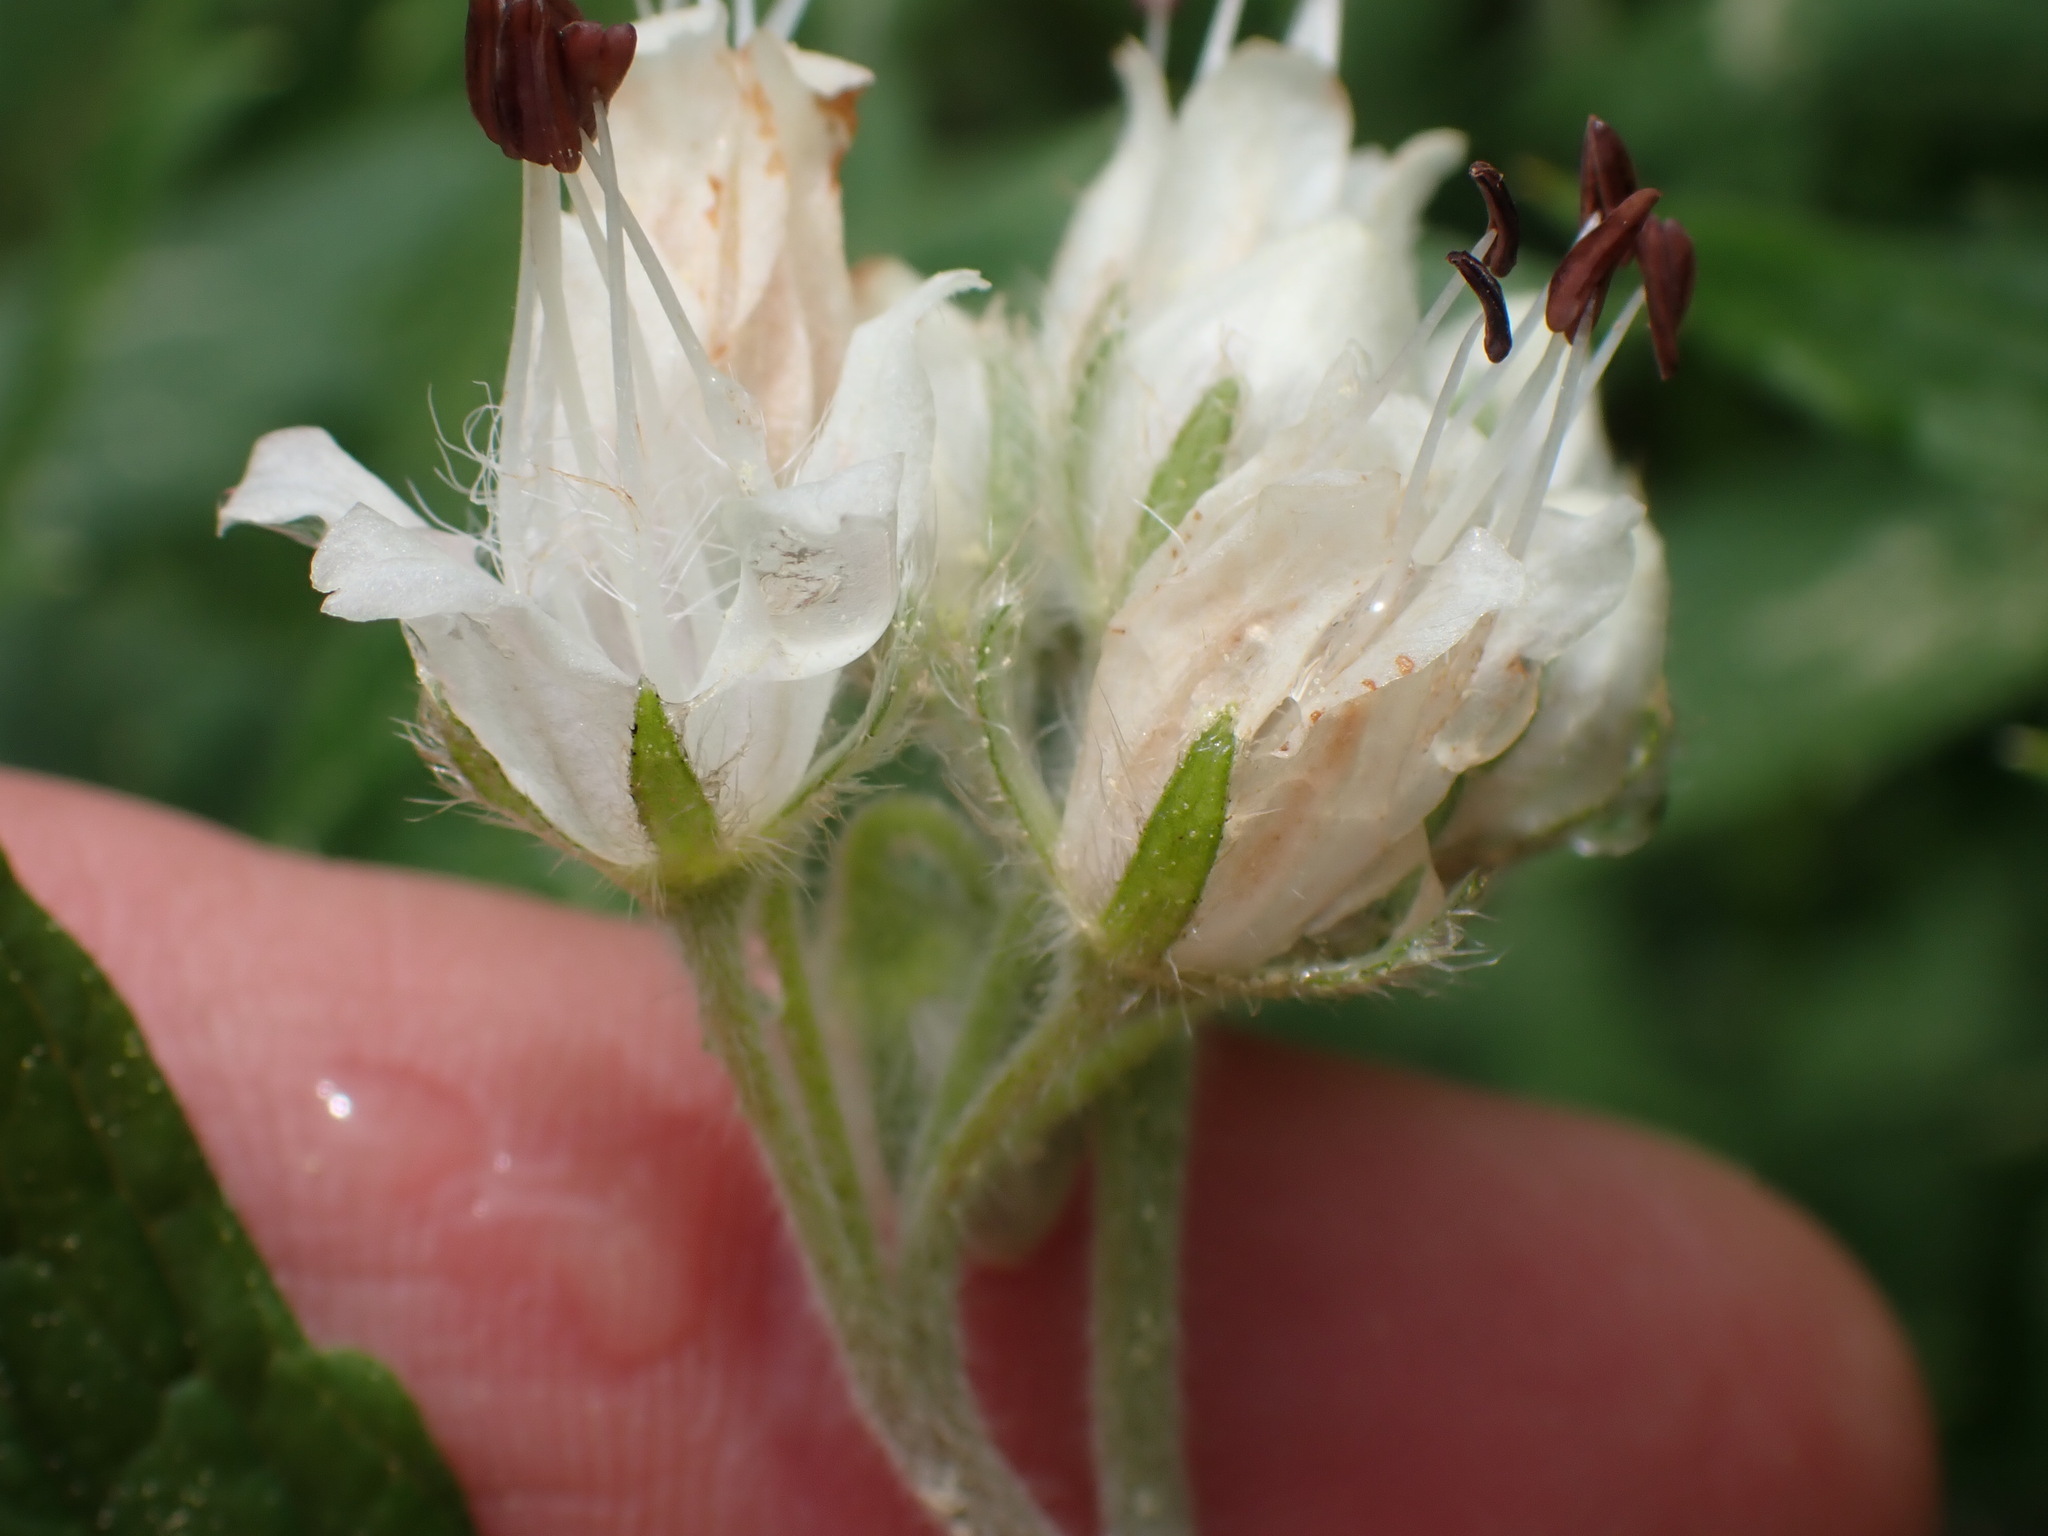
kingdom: Plantae
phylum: Tracheophyta
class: Magnoliopsida
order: Boraginales
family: Hydrophyllaceae
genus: Hydrophyllum
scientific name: Hydrophyllum fendleri
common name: Fendler's waterleaf
